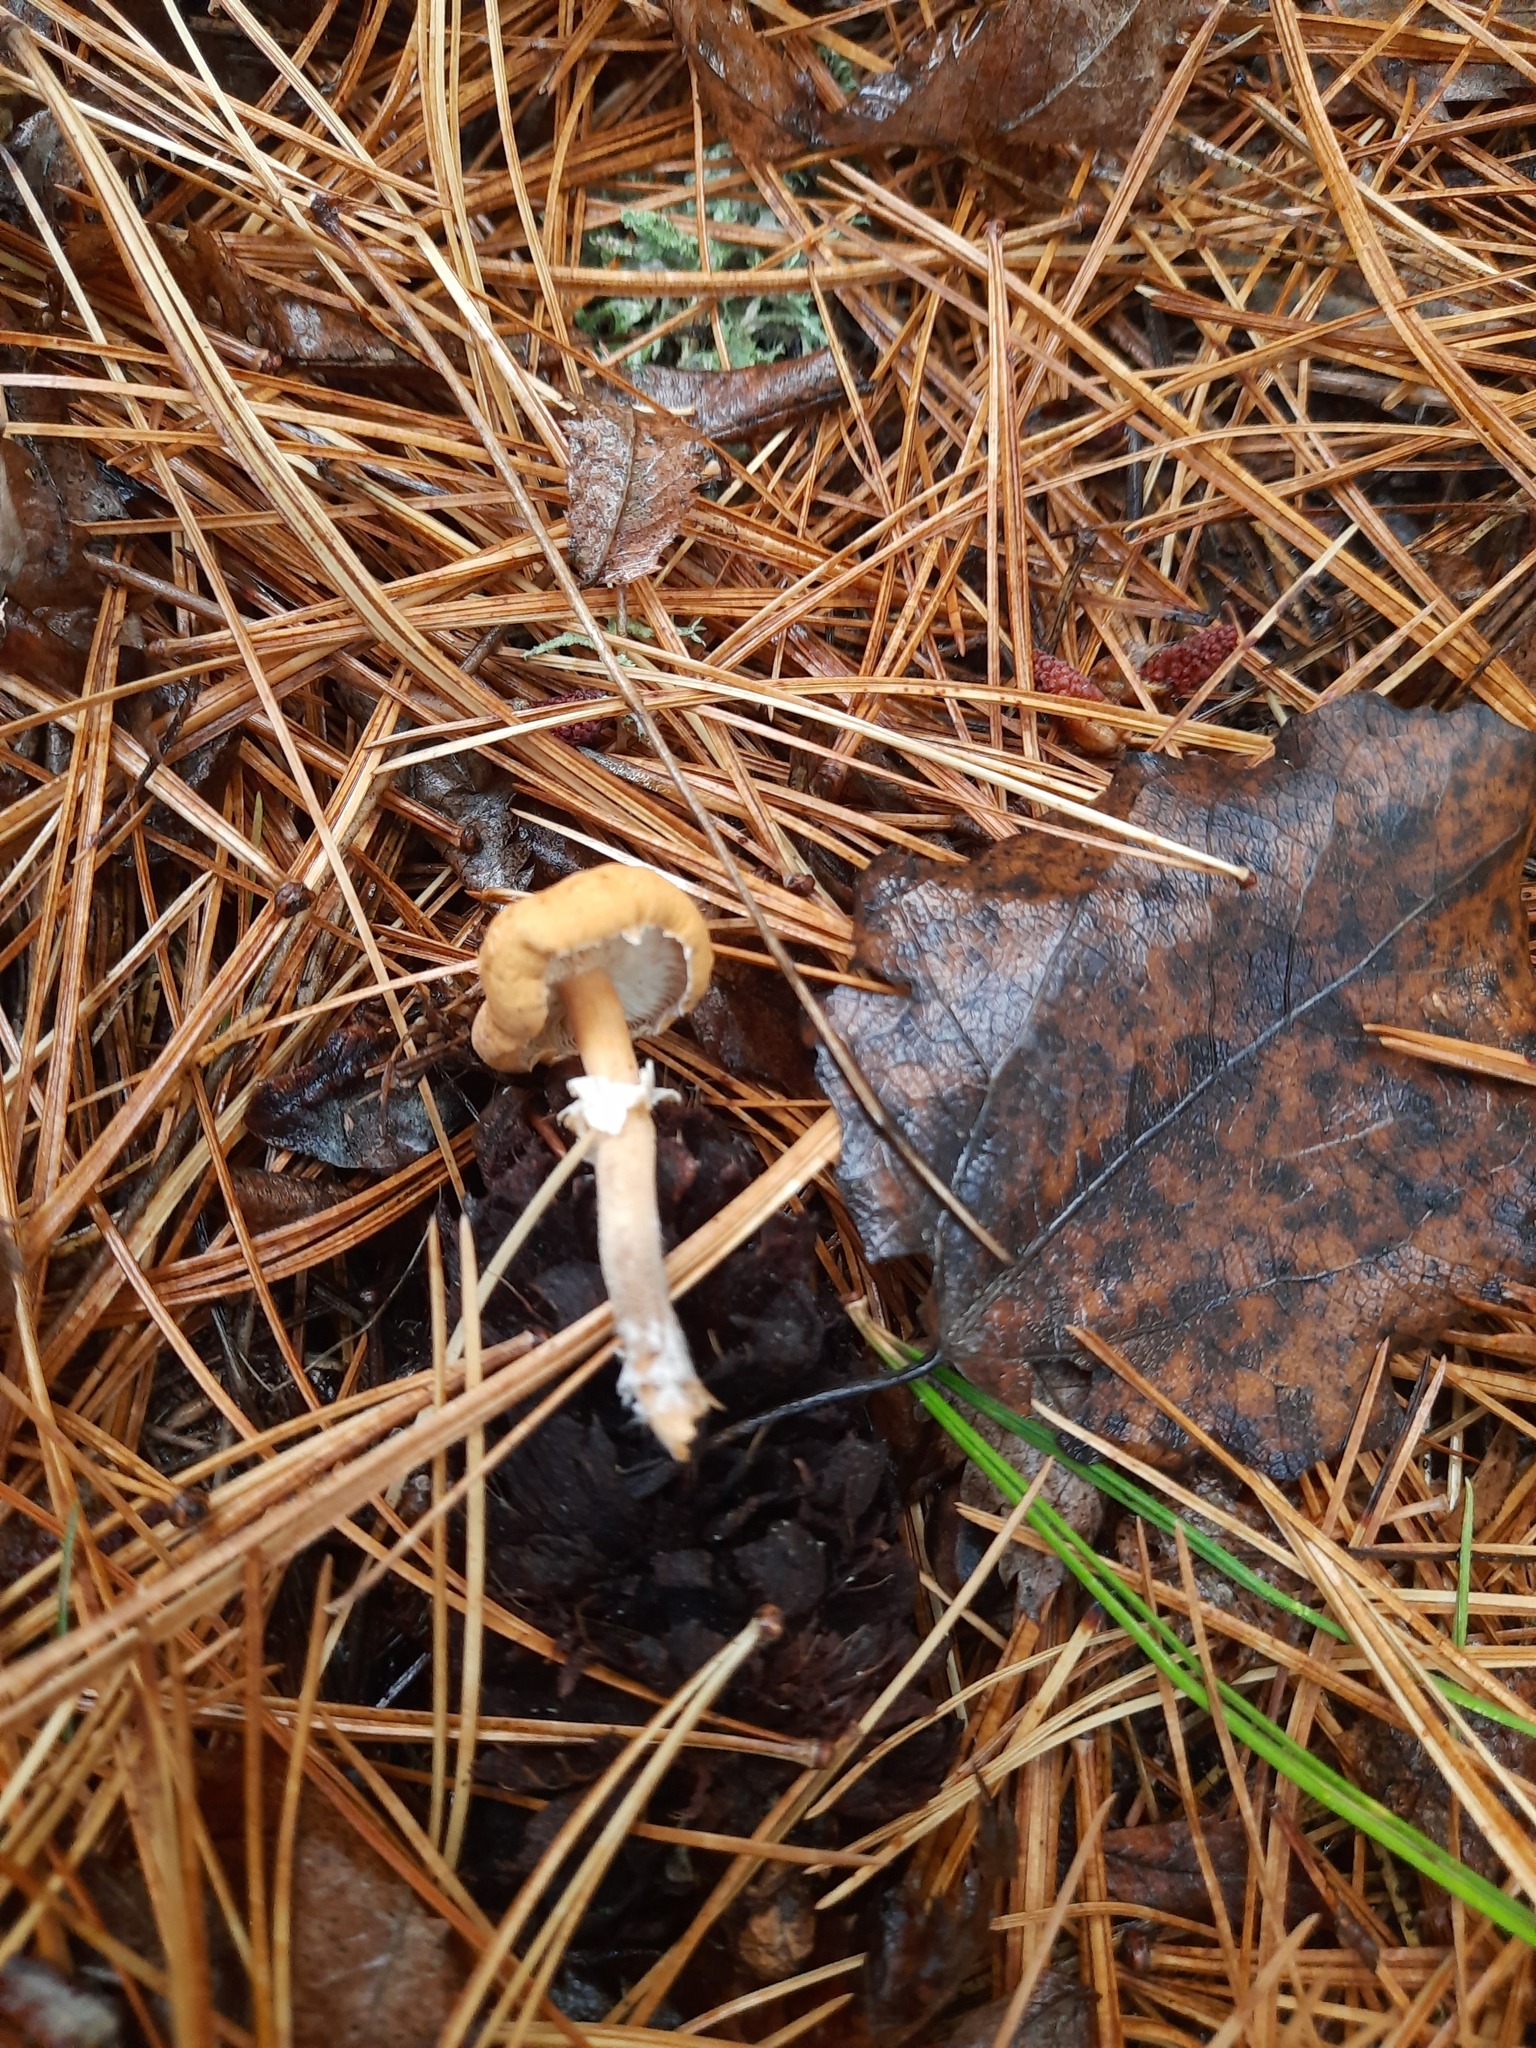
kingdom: Fungi
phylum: Basidiomycota
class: Agaricomycetes
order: Agaricales
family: Tricholomataceae
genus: Cystoderma
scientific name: Cystoderma amianthinum
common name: Earthy powdercap
